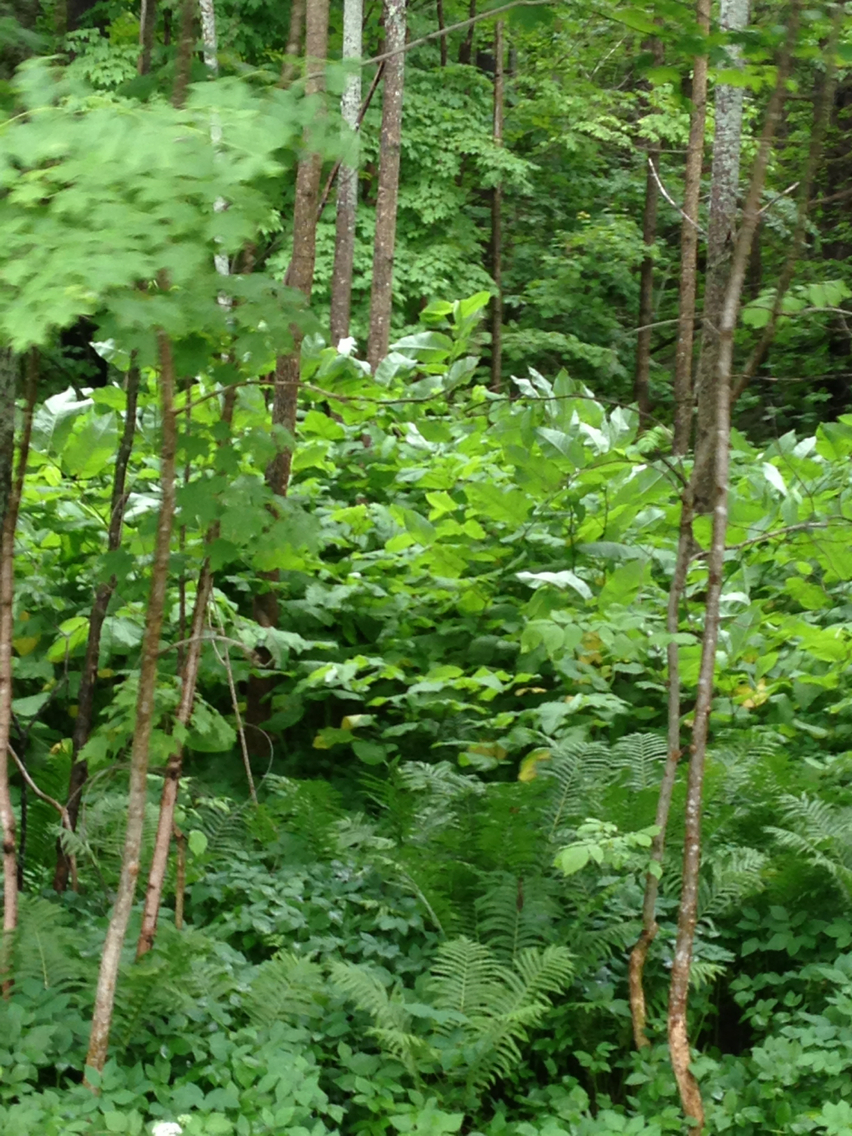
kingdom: Plantae
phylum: Tracheophyta
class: Magnoliopsida
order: Caryophyllales
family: Polygonaceae
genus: Reynoutria
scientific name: Reynoutria sachalinensis
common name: Giant knotweed
